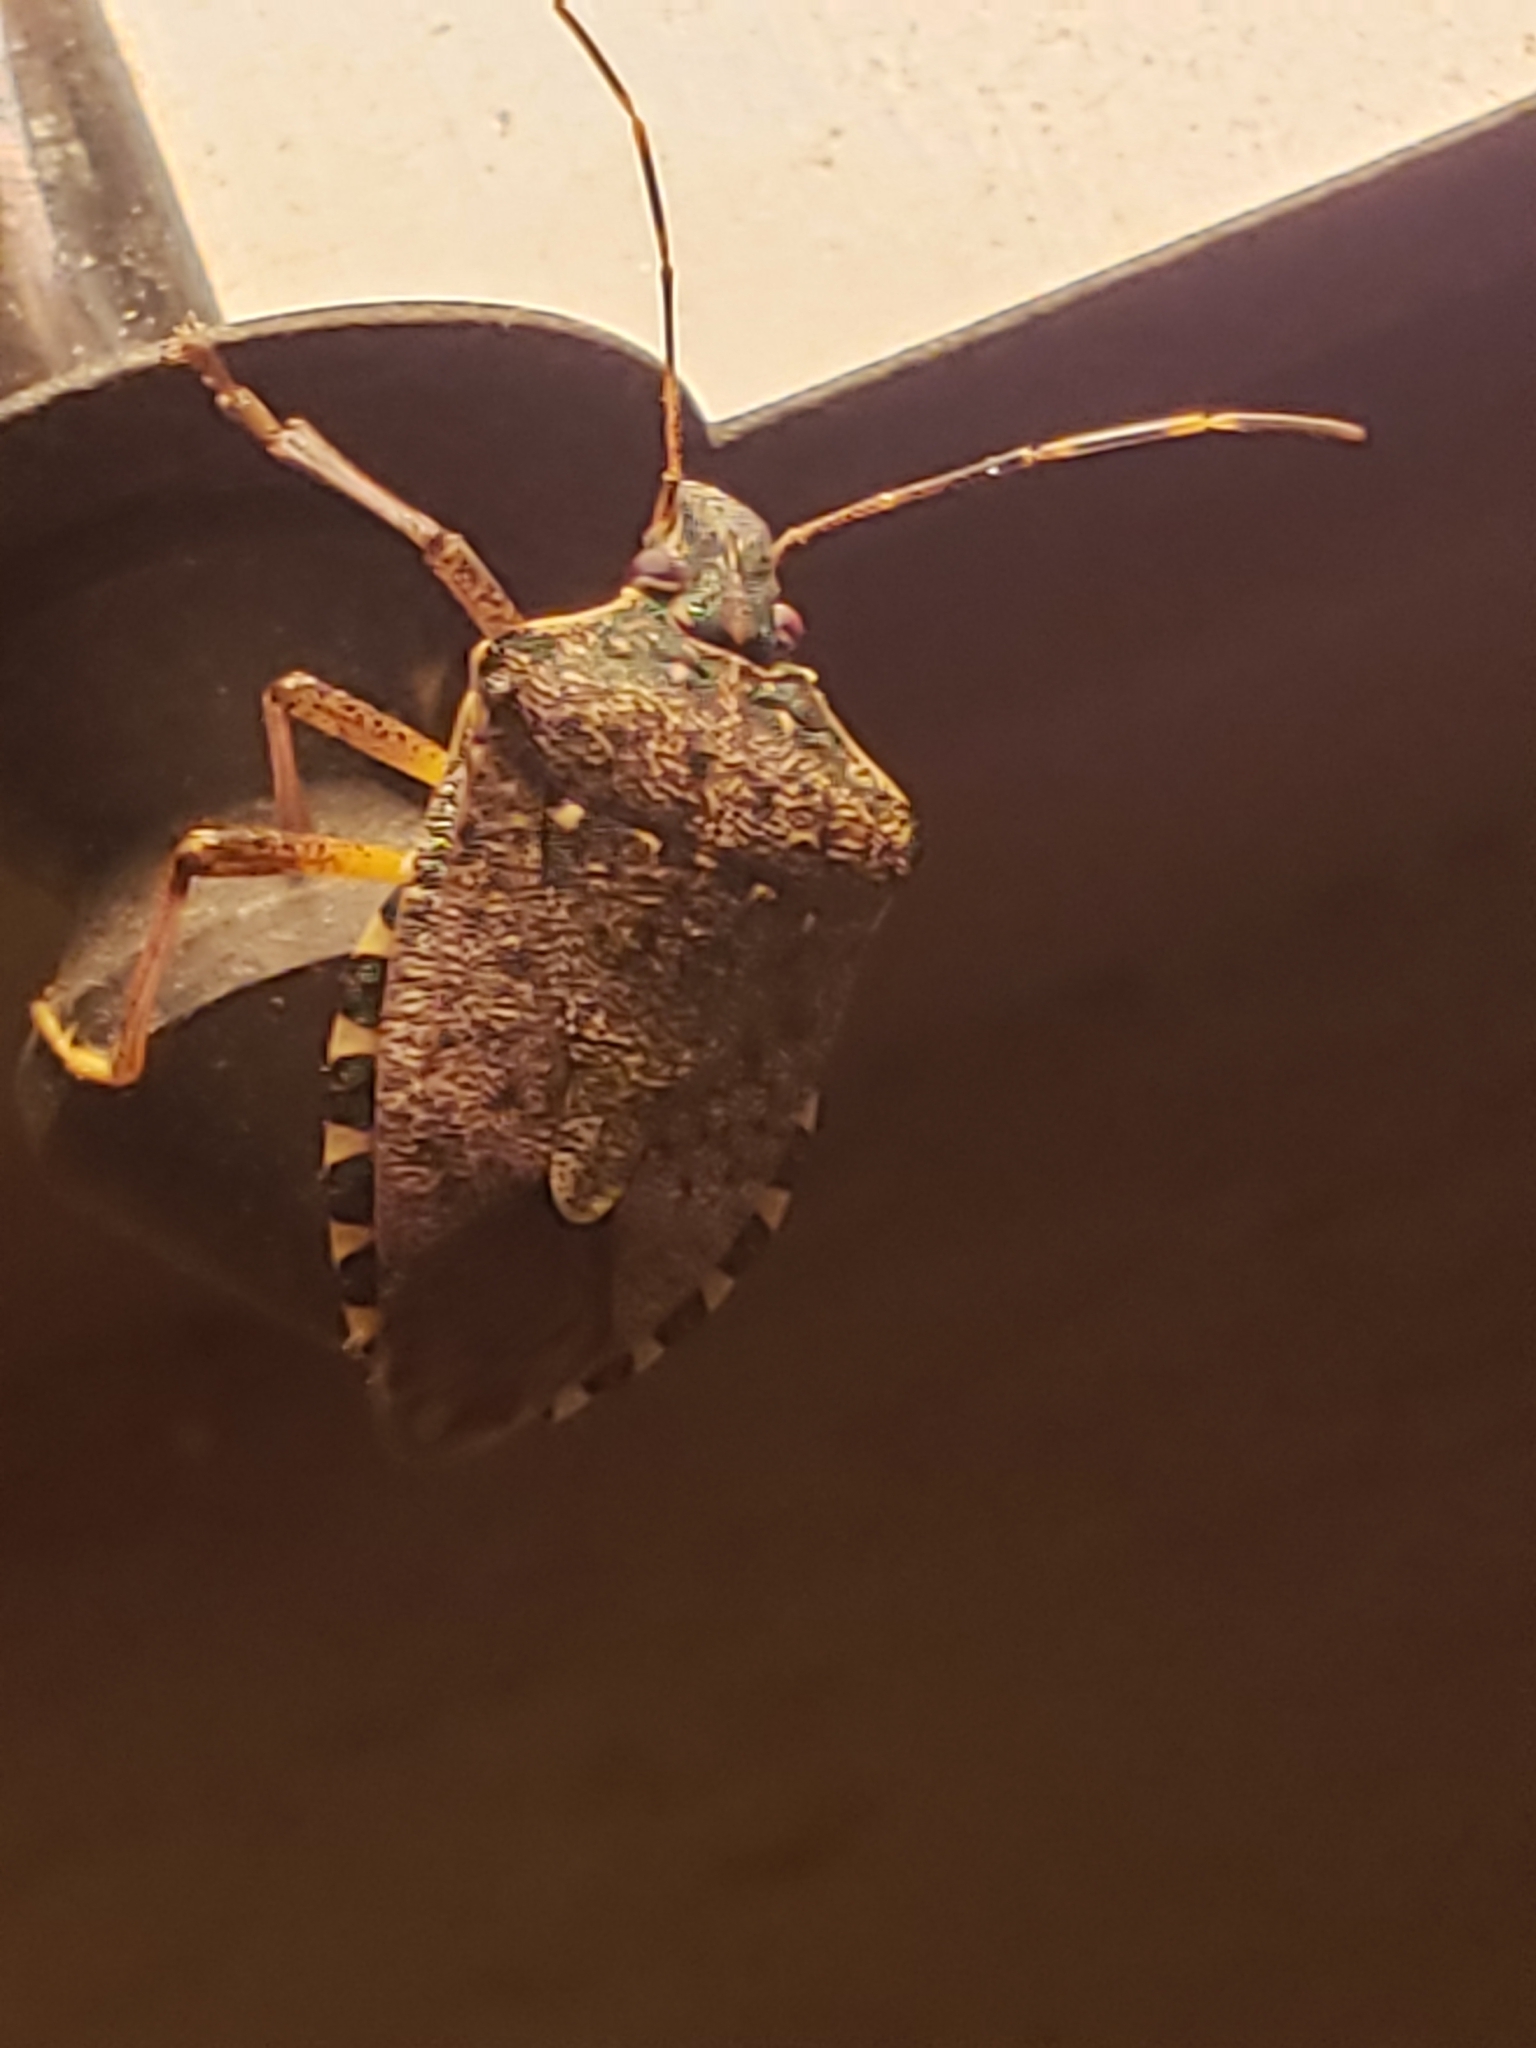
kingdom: Animalia
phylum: Arthropoda
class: Insecta
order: Hemiptera
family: Pentatomidae
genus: Halyomorpha
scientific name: Halyomorpha halys
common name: Brown marmorated stink bug
